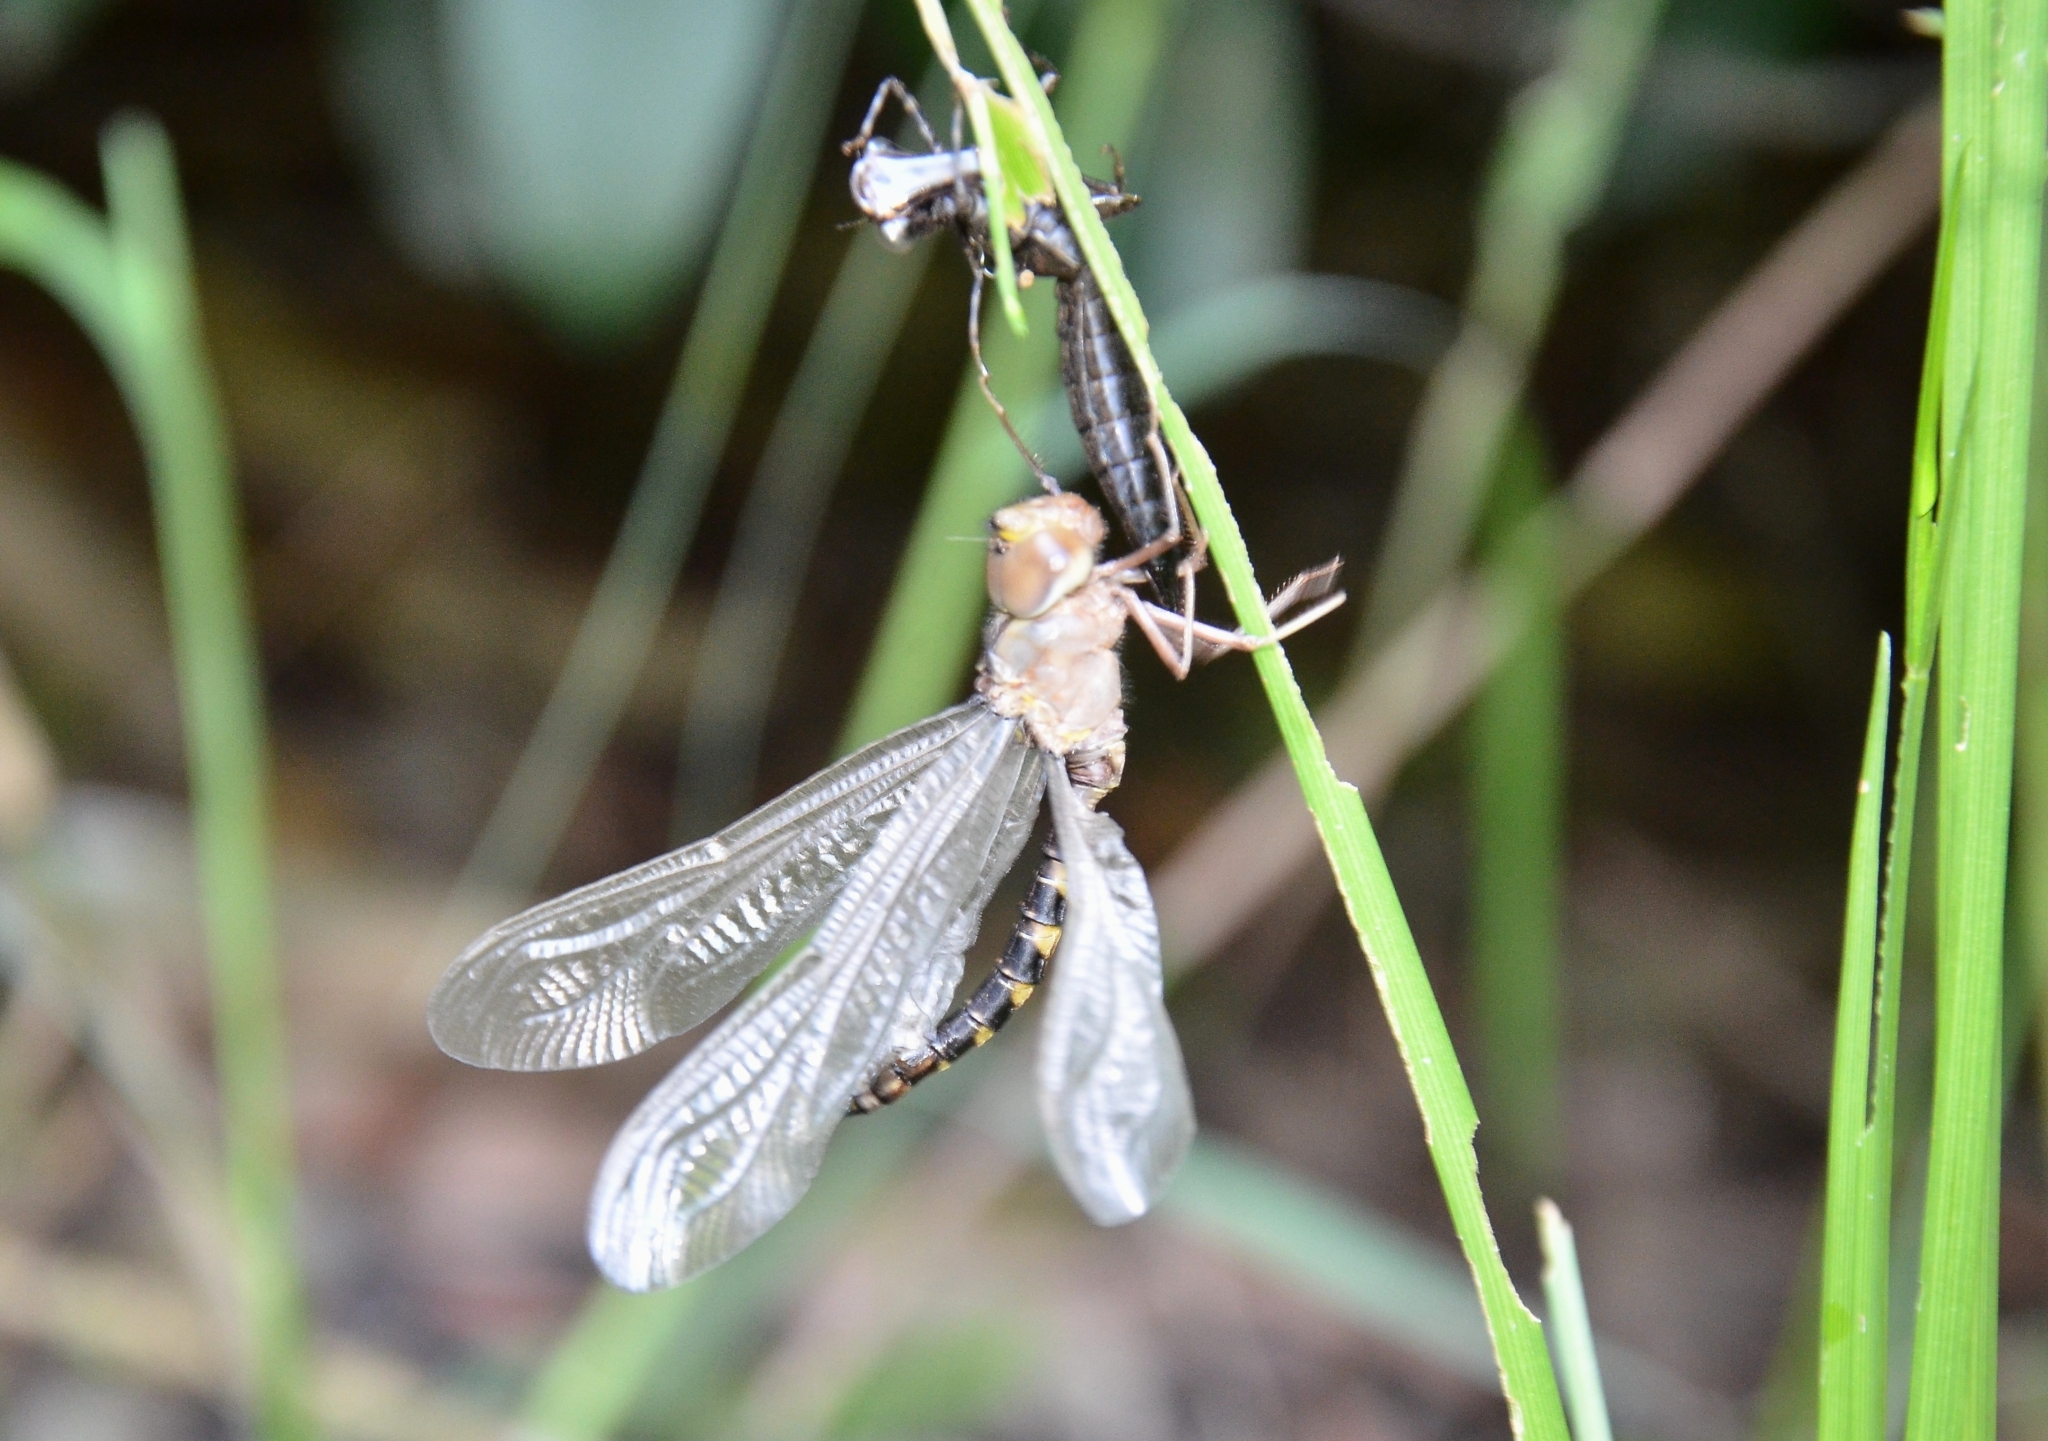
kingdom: Animalia
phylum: Arthropoda
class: Insecta
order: Odonata
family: Aeshnidae
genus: Gynacantha
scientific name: Gynacantha dravida
